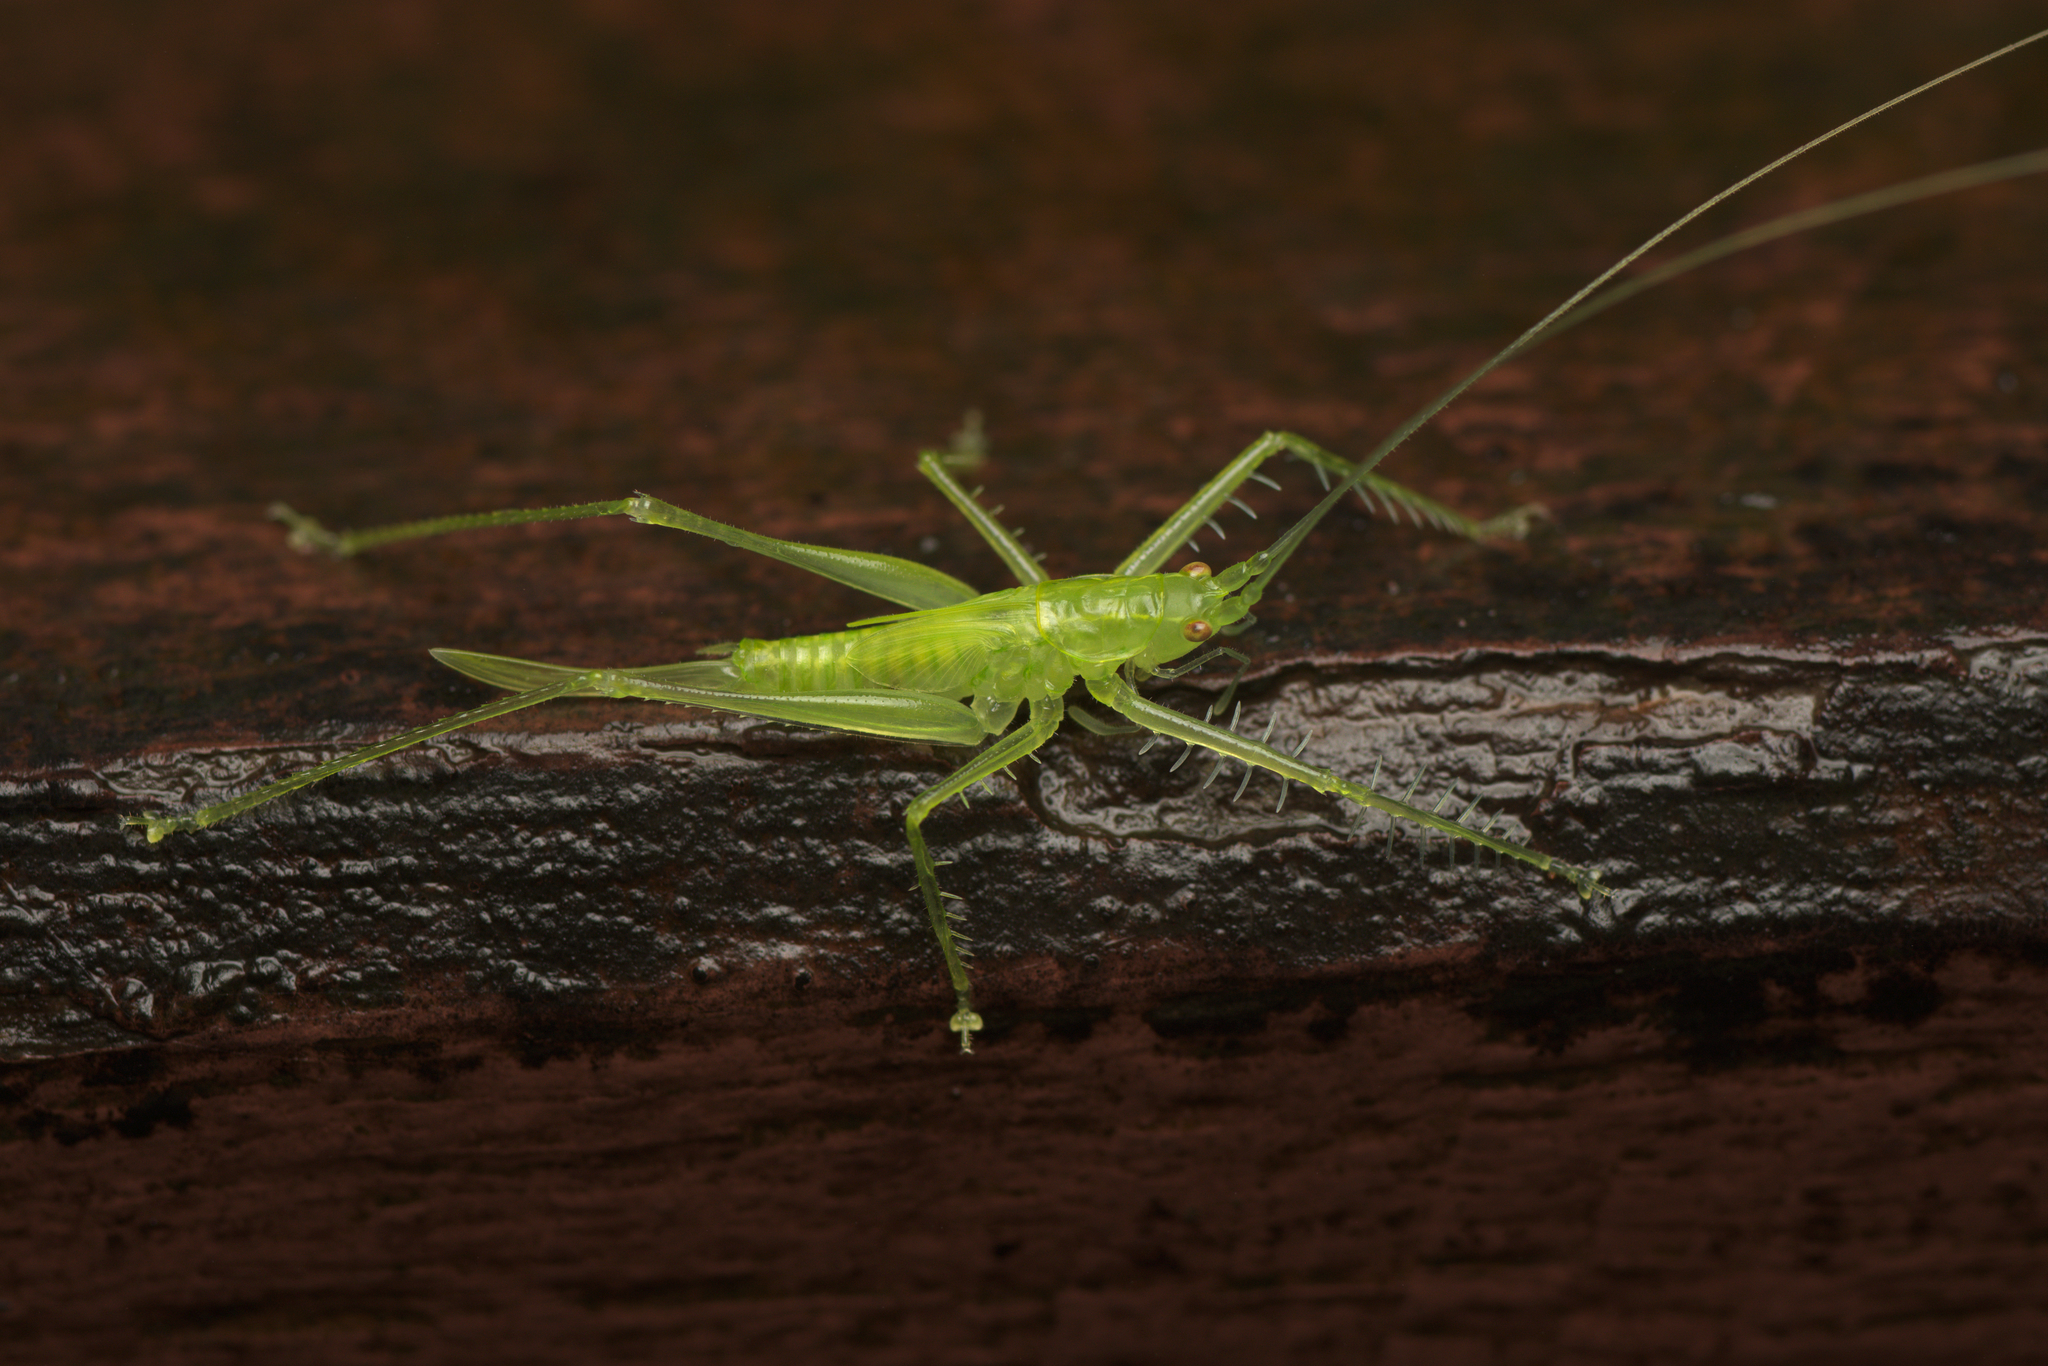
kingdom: Animalia
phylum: Arthropoda
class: Insecta
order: Orthoptera
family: Tettigoniidae
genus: Paraphisis
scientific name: Paraphisis tryonensis
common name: Tryon island spider katydid
